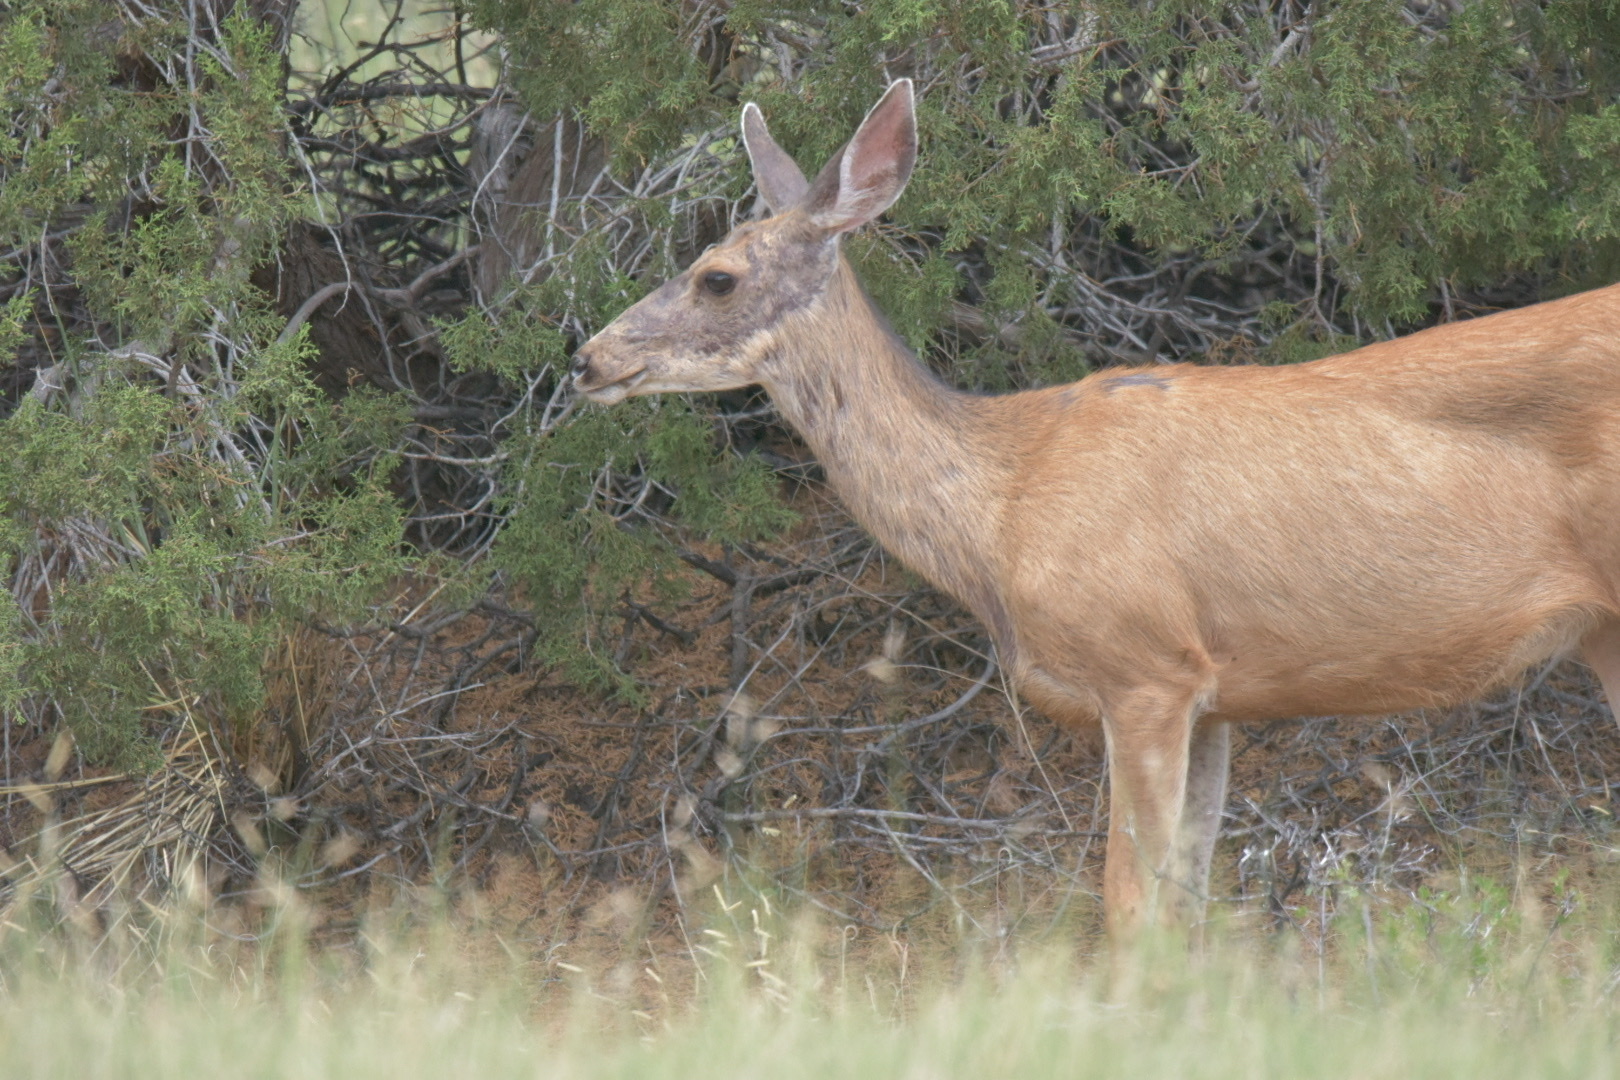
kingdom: Animalia
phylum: Chordata
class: Mammalia
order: Artiodactyla
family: Cervidae
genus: Odocoileus
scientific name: Odocoileus hemionus
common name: Mule deer
